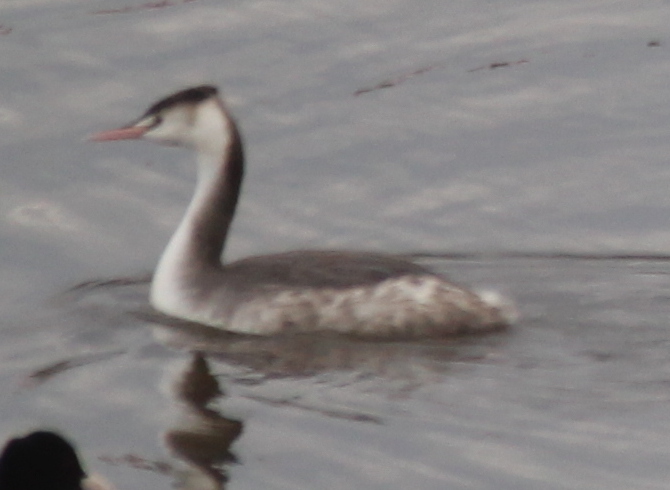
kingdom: Animalia
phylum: Chordata
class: Aves
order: Podicipediformes
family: Podicipedidae
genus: Podiceps
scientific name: Podiceps cristatus
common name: Great crested grebe
